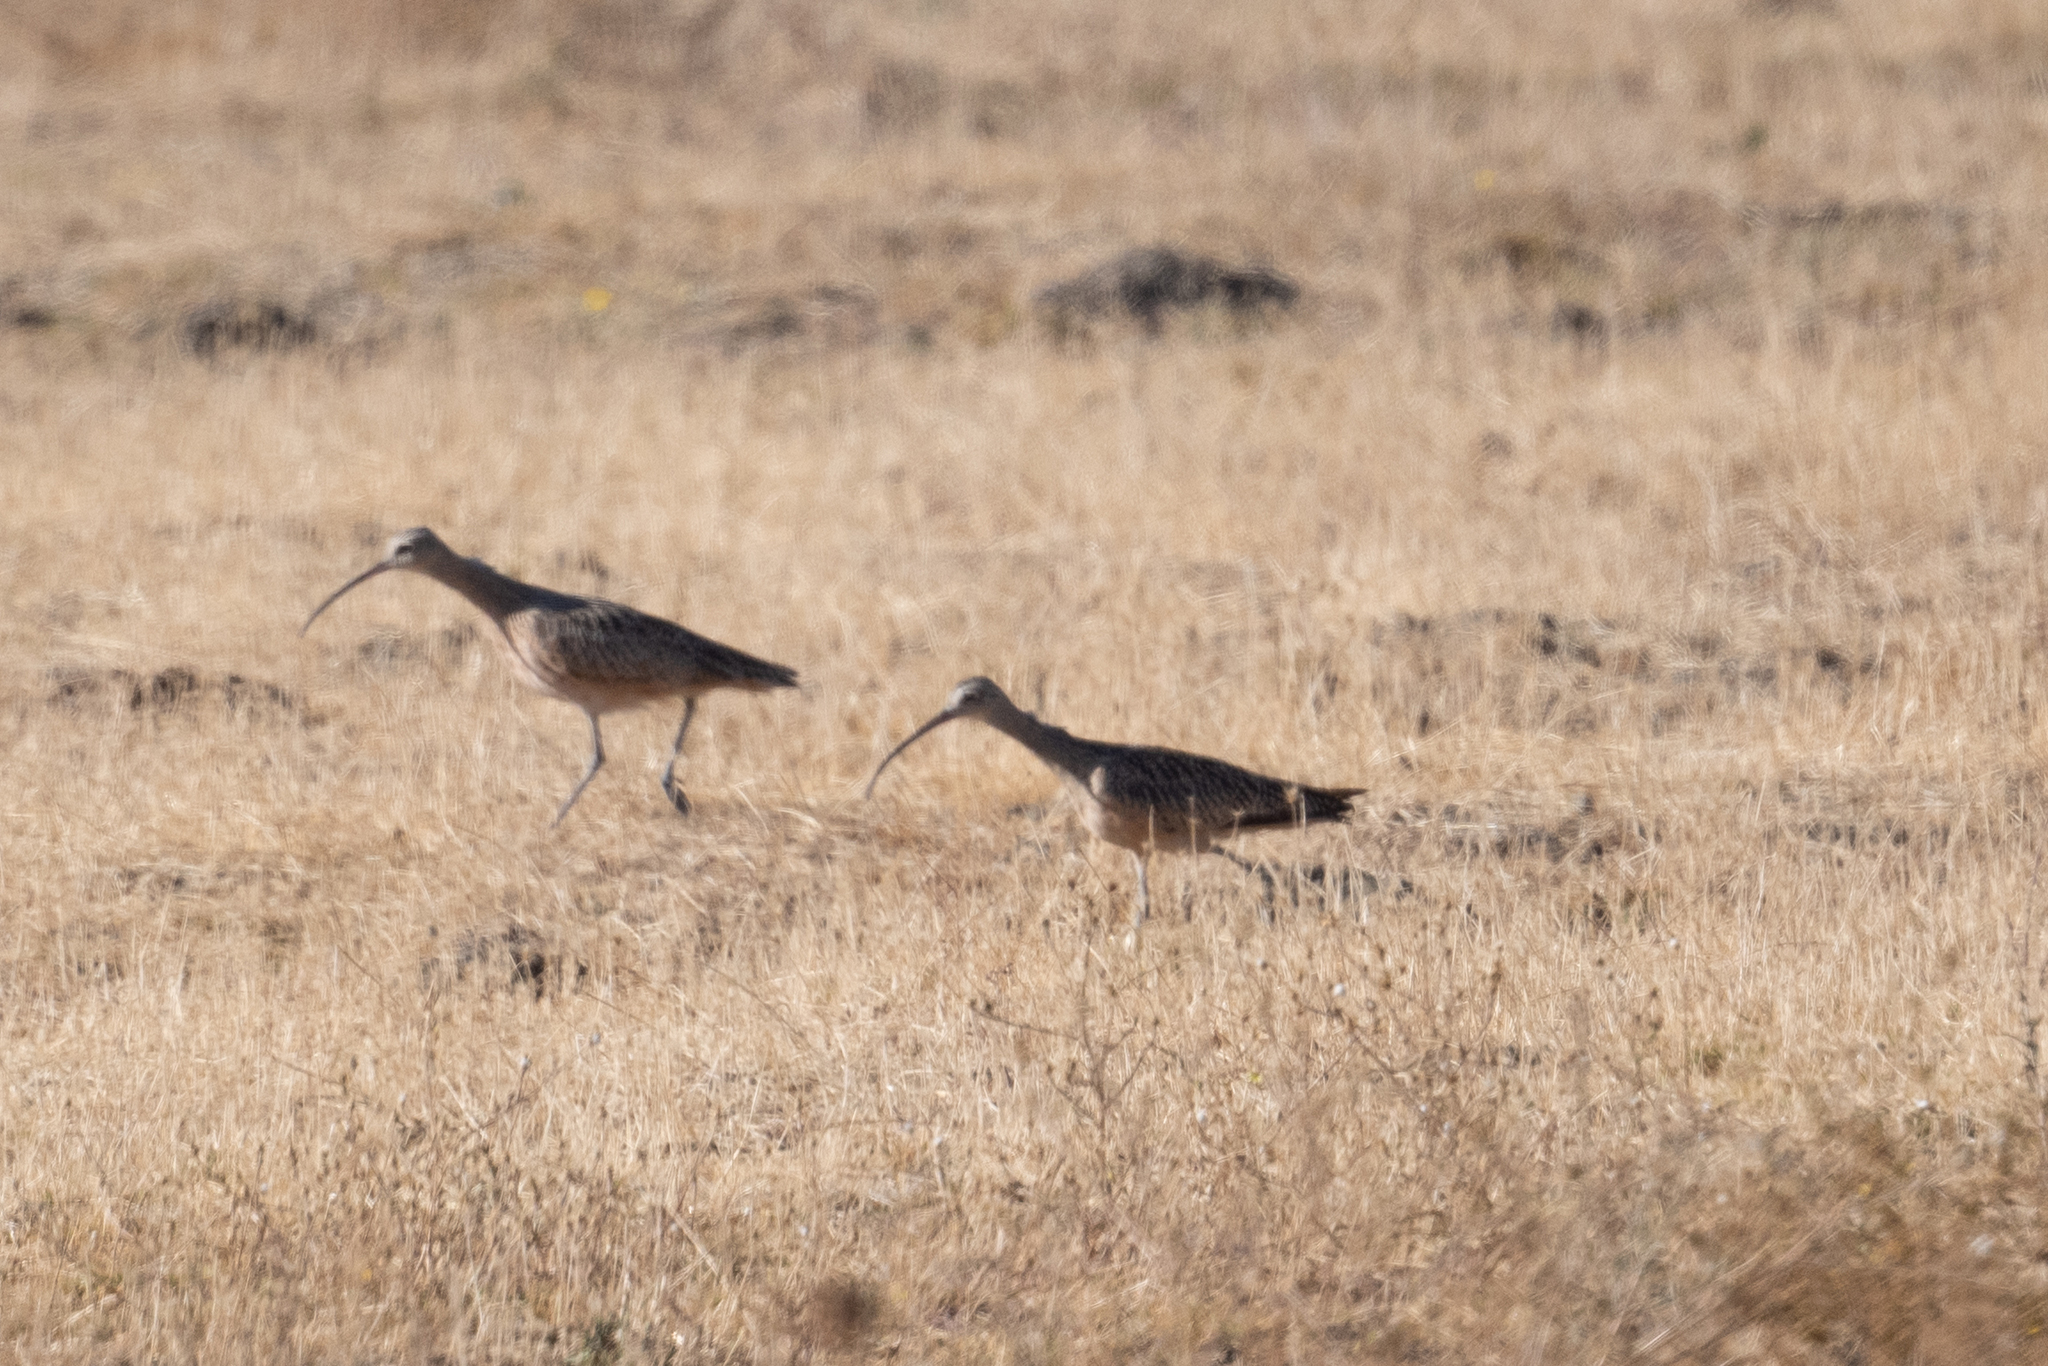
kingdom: Animalia
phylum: Chordata
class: Aves
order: Charadriiformes
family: Scolopacidae
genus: Numenius
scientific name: Numenius americanus
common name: Long-billed curlew
